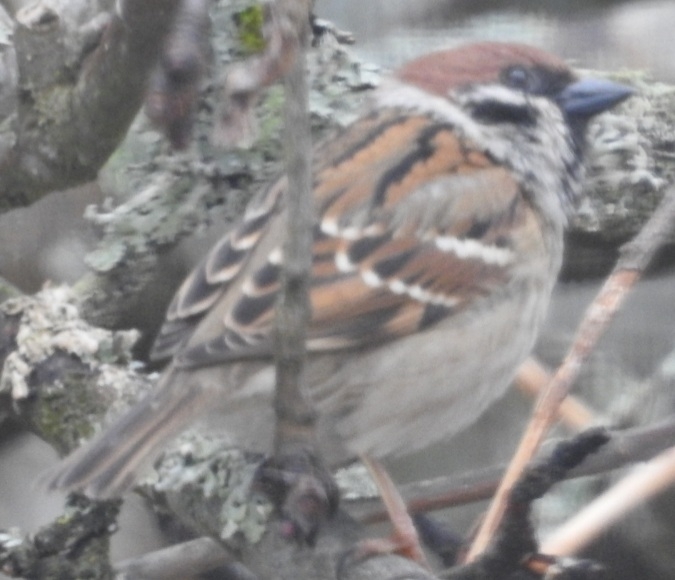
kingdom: Animalia
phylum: Chordata
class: Aves
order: Passeriformes
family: Passeridae
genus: Passer
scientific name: Passer montanus
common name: Eurasian tree sparrow
